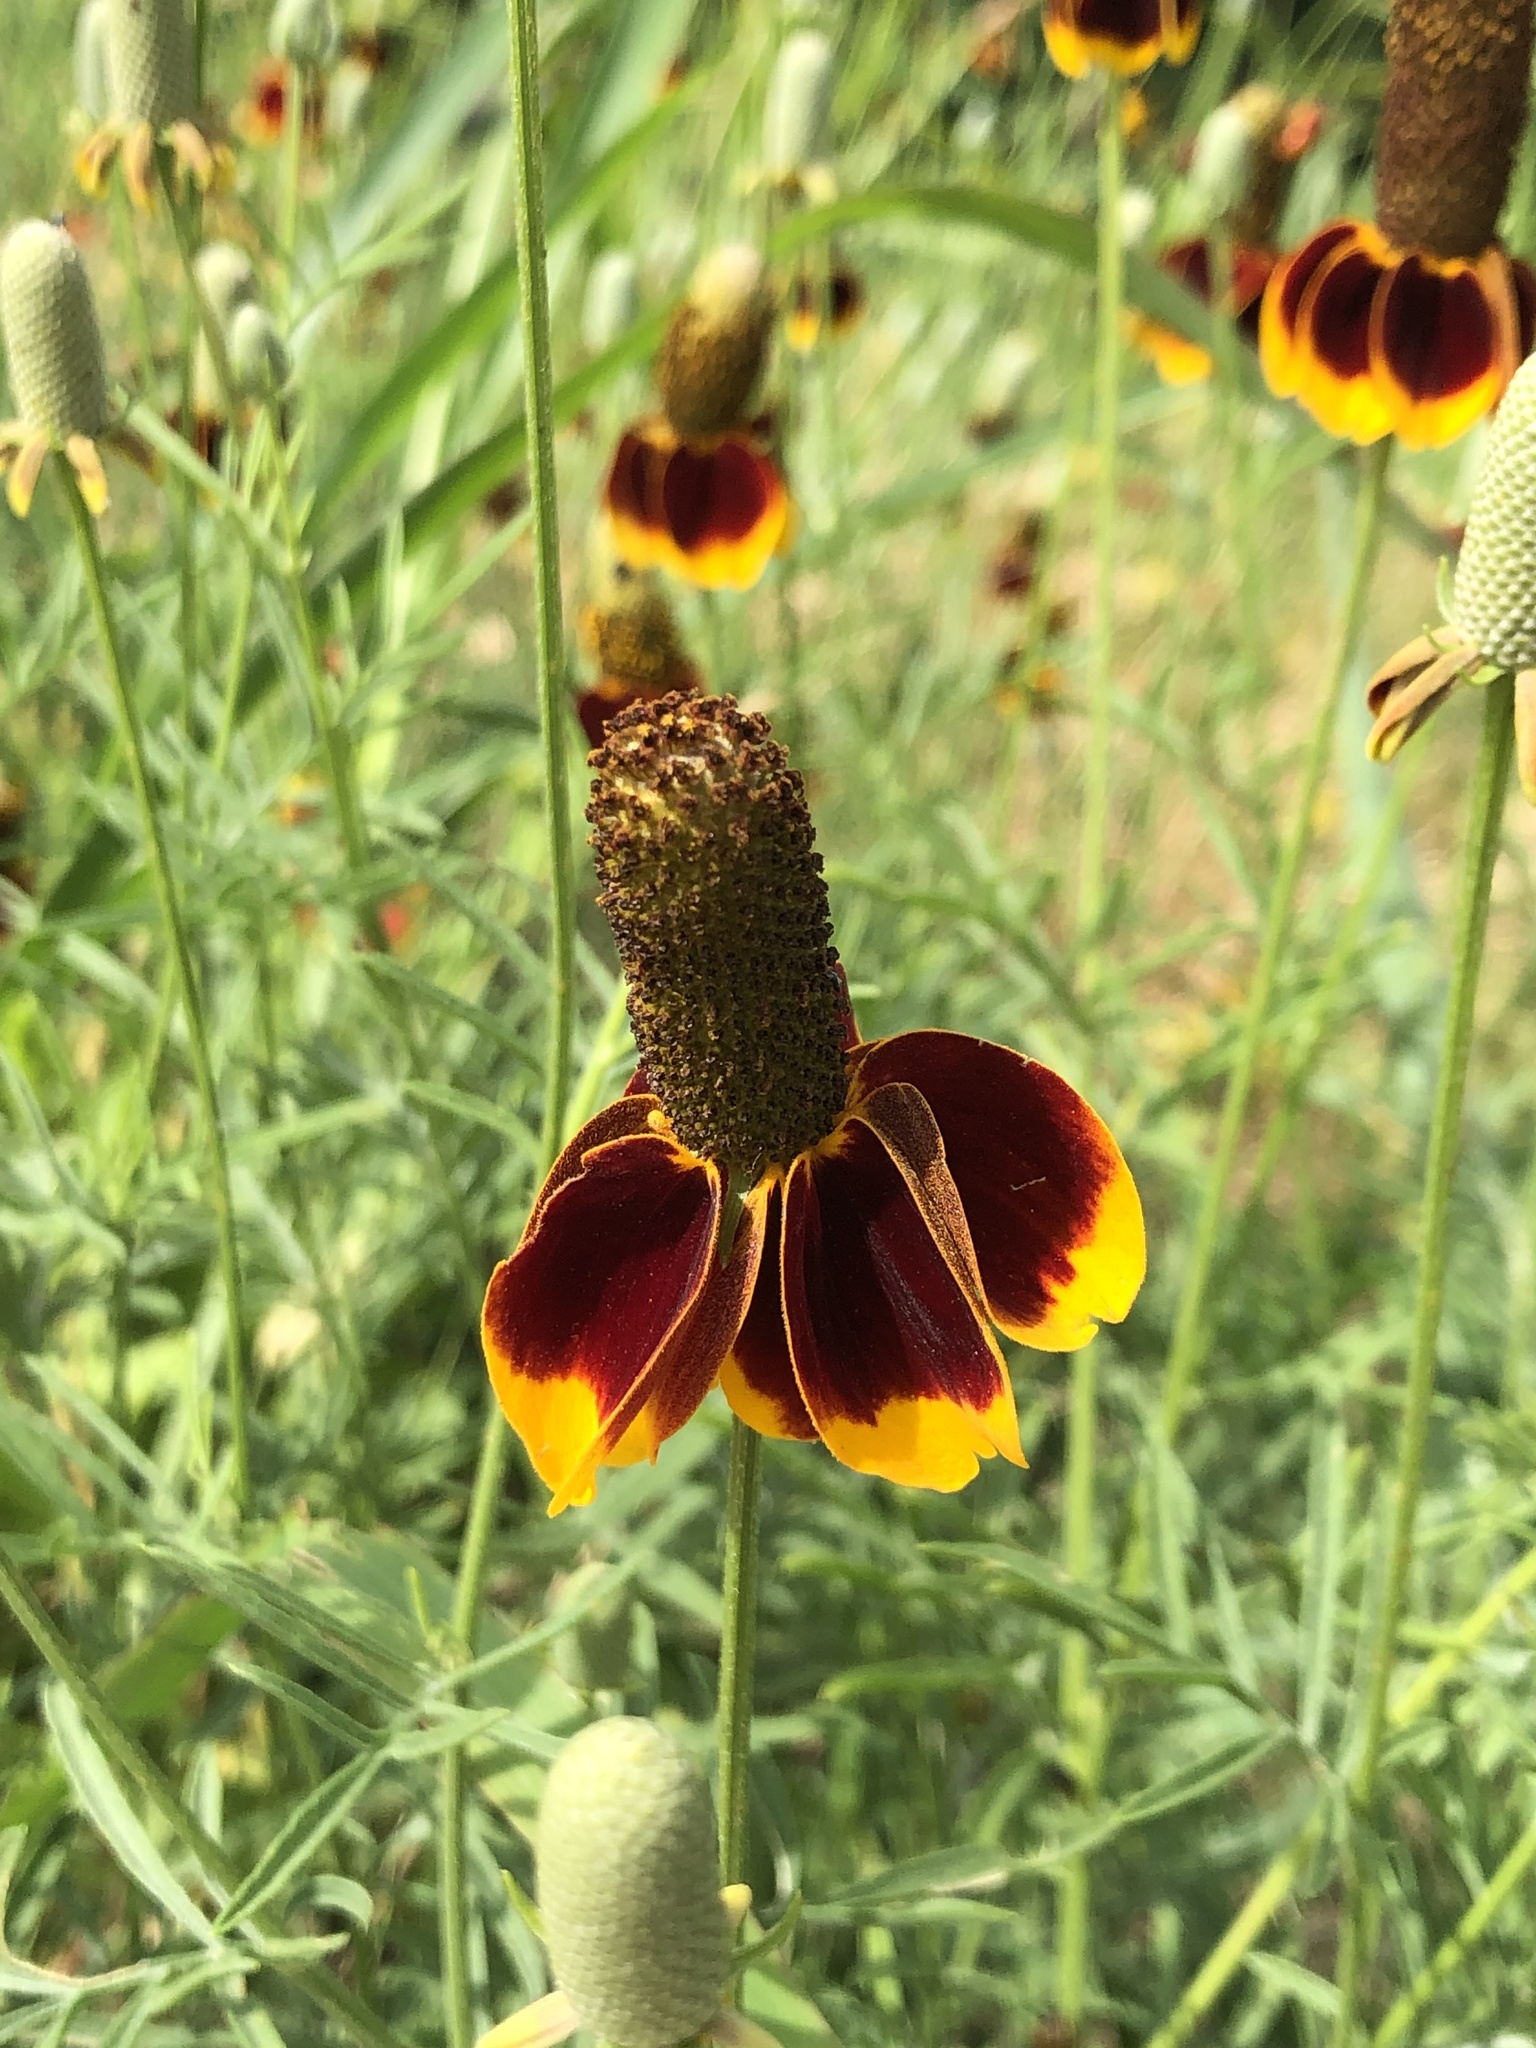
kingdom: Plantae
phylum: Tracheophyta
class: Magnoliopsida
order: Asterales
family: Asteraceae
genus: Ratibida
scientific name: Ratibida columnifera
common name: Prairie coneflower
